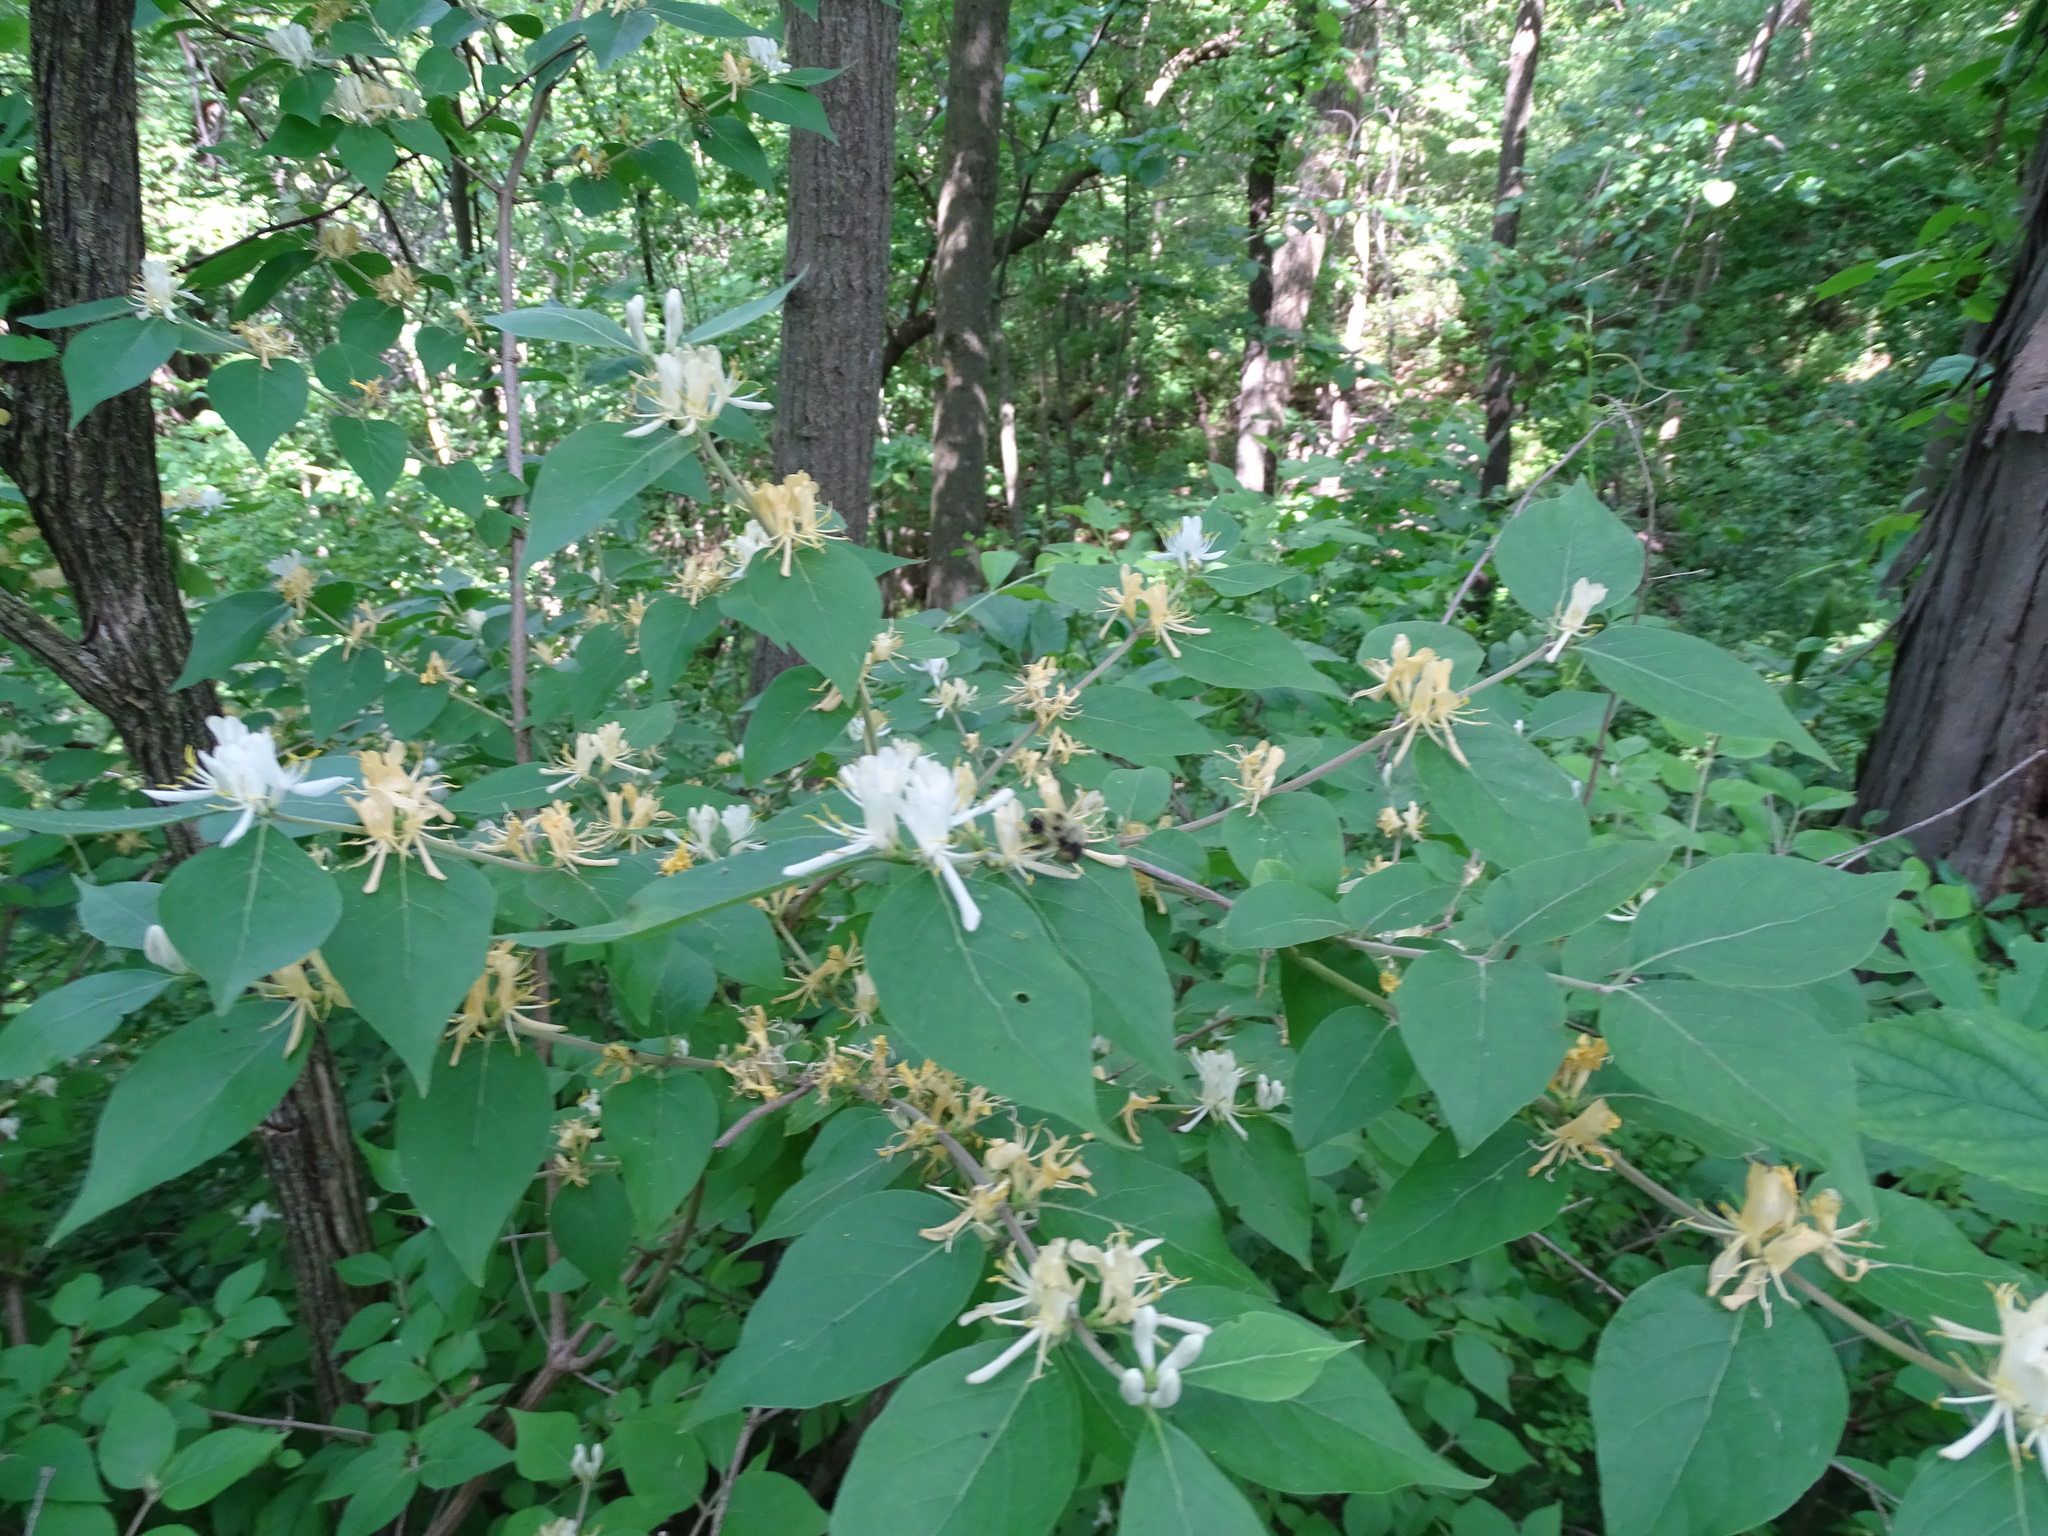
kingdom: Plantae
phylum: Tracheophyta
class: Magnoliopsida
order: Dipsacales
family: Caprifoliaceae
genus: Lonicera
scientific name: Lonicera maackii
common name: Amur honeysuckle
